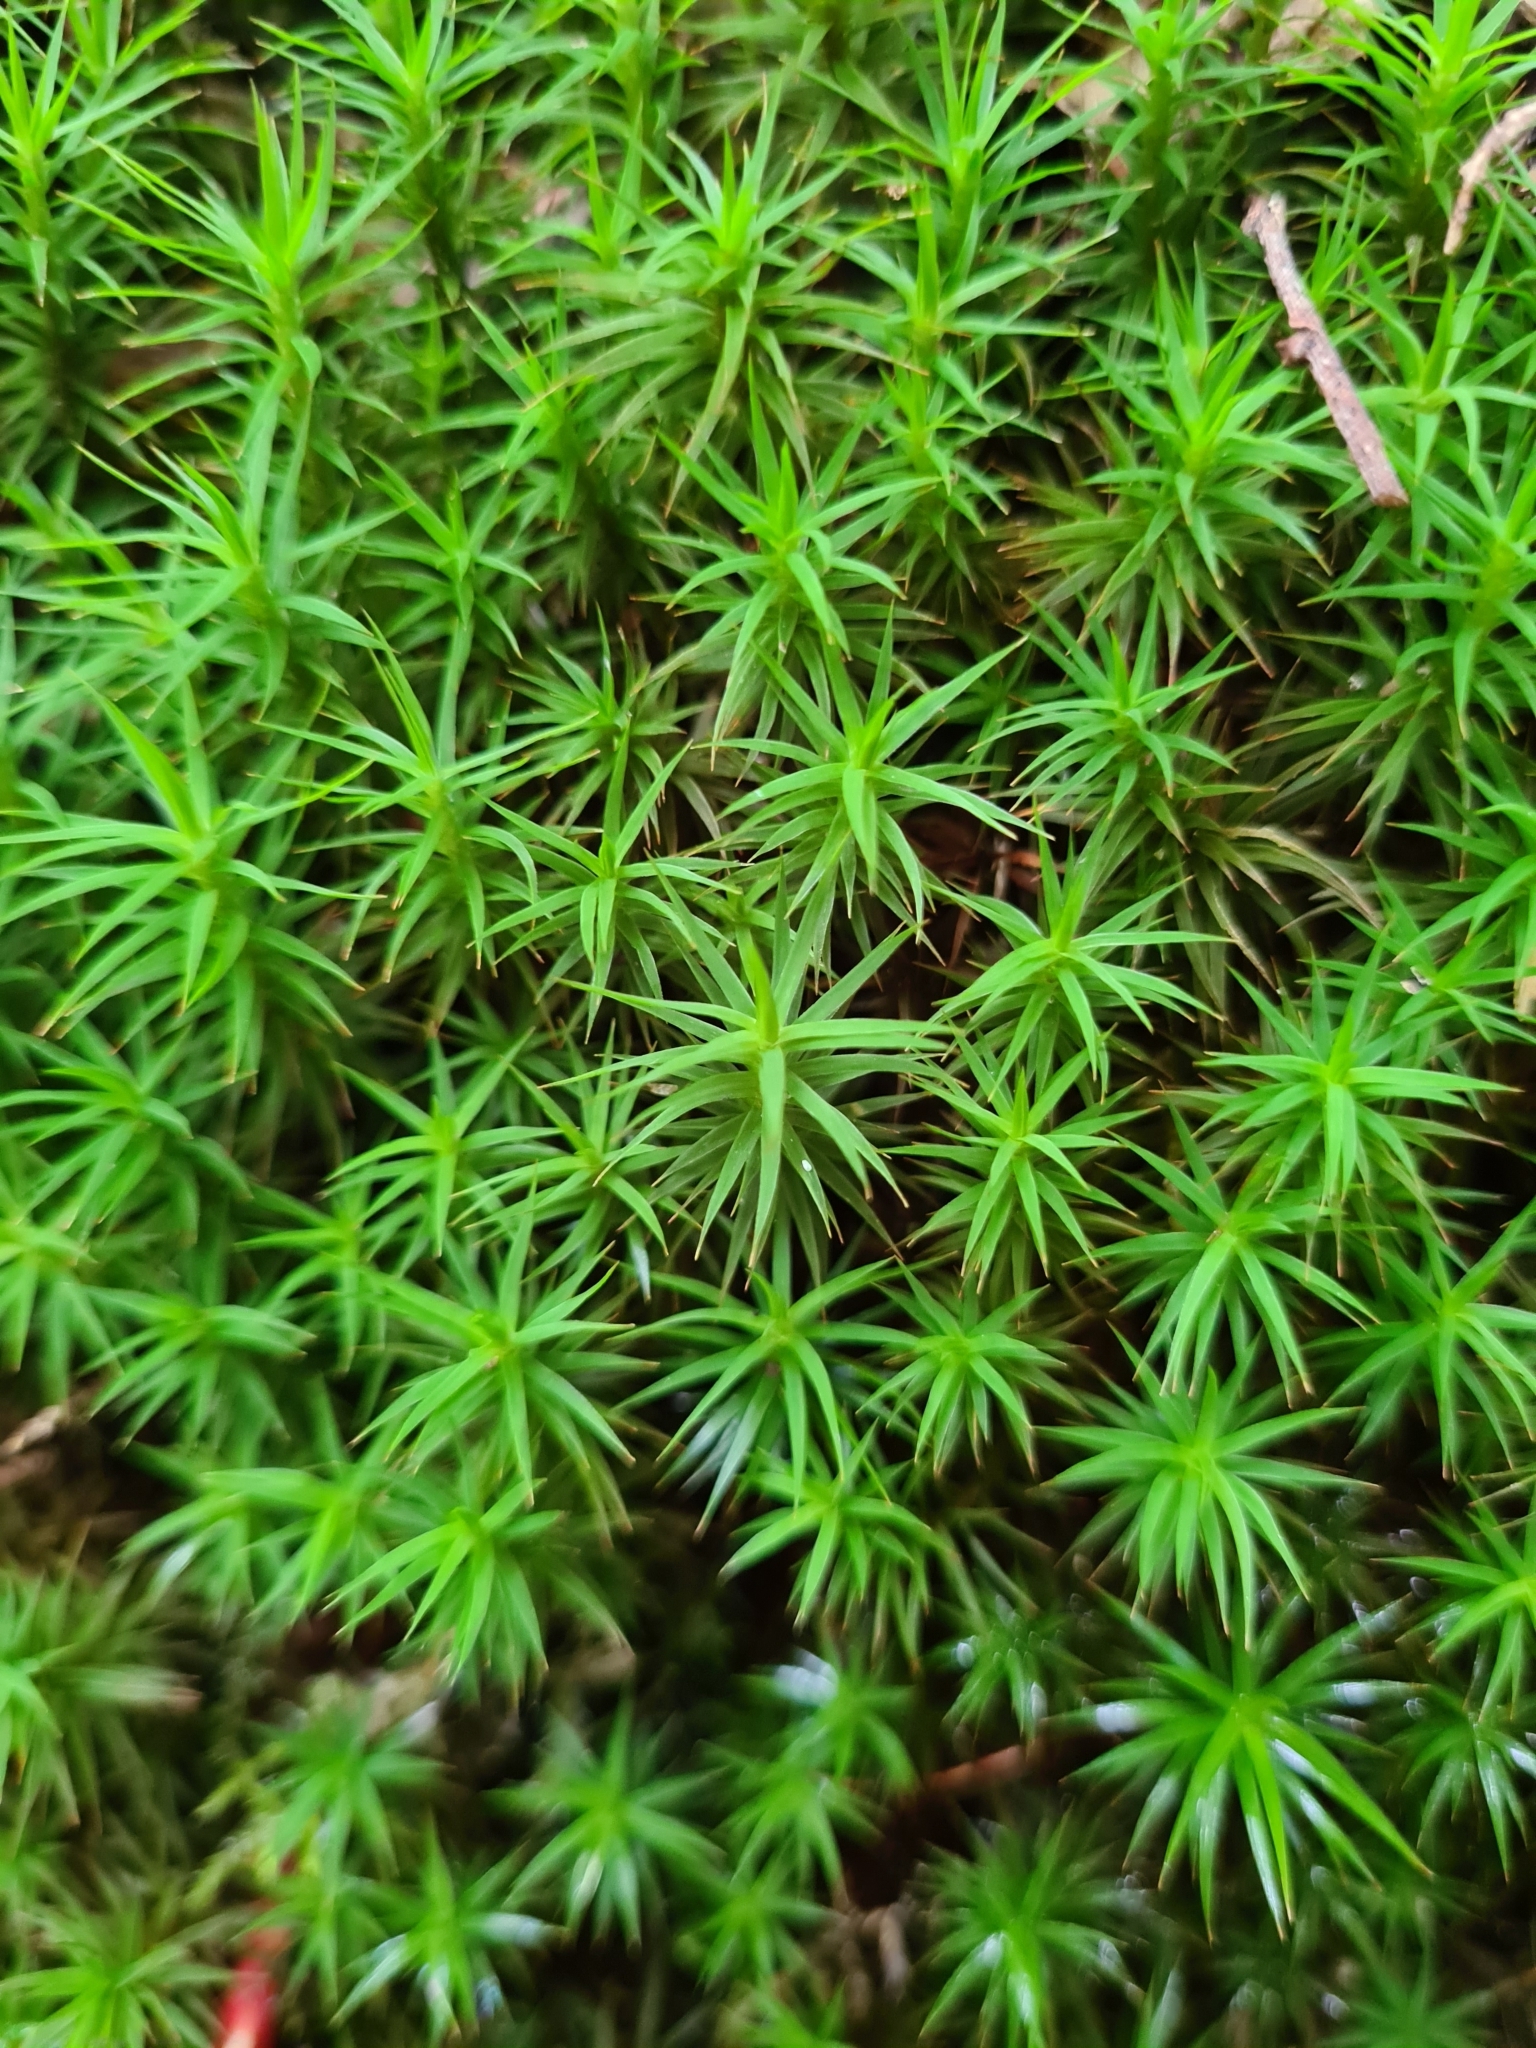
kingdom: Plantae
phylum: Bryophyta
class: Polytrichopsida
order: Polytrichales
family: Polytrichaceae
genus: Polytrichum
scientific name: Polytrichum formosum
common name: Bank haircap moss
